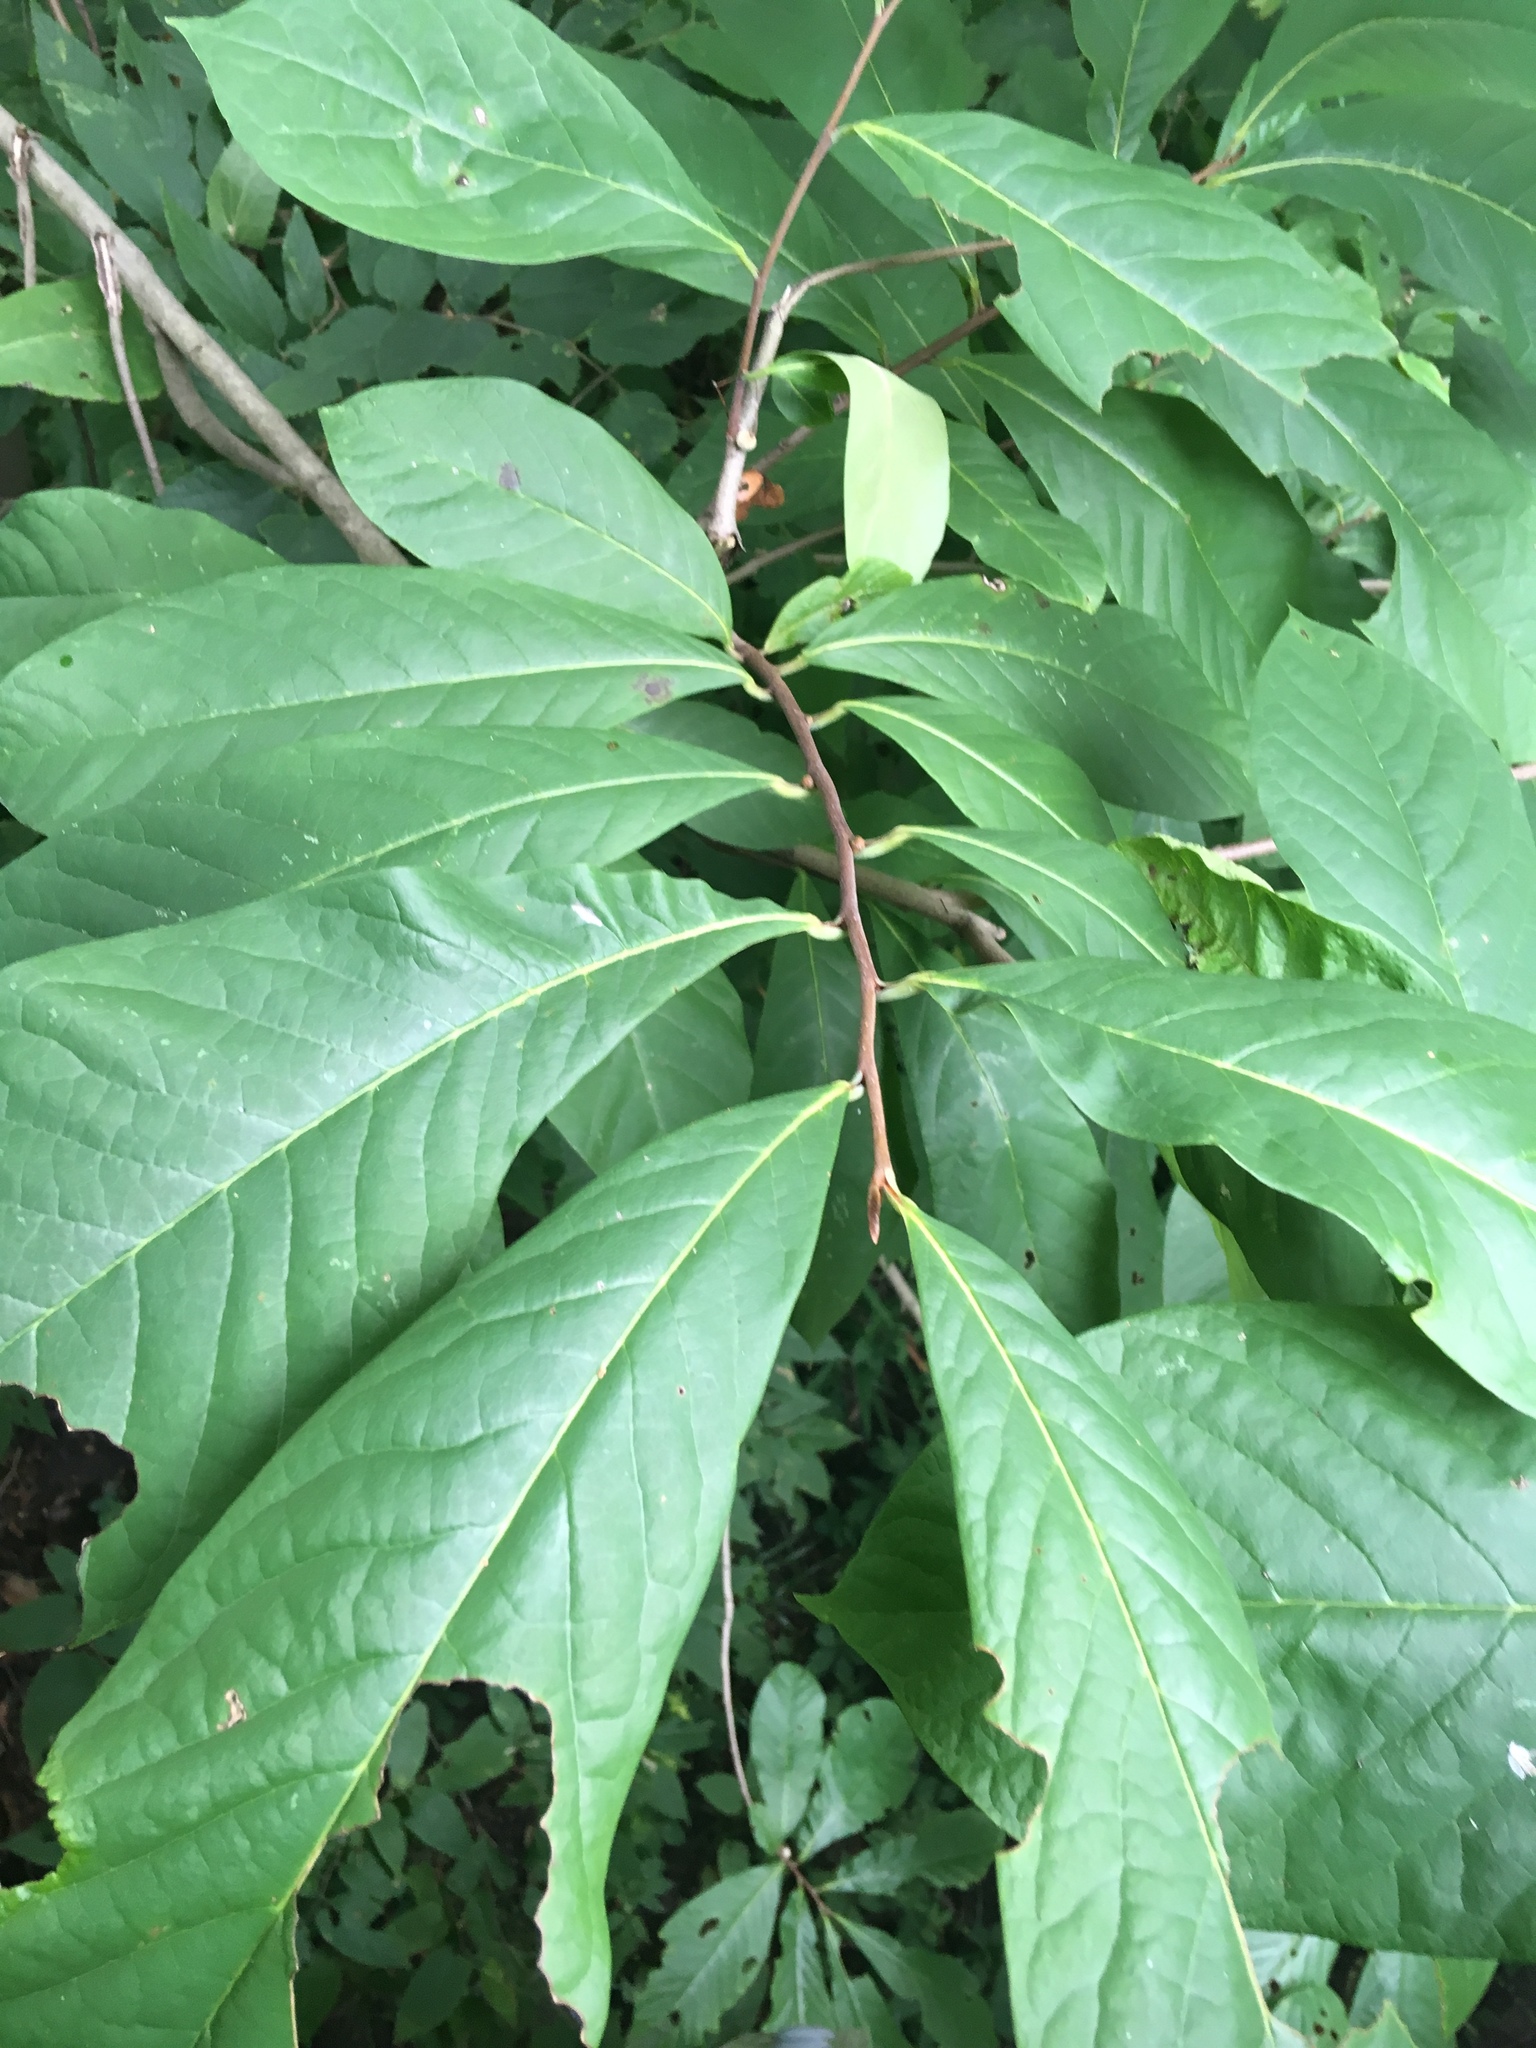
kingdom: Plantae
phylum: Tracheophyta
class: Magnoliopsida
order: Magnoliales
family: Annonaceae
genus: Asimina
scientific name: Asimina triloba
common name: Dog-banana
